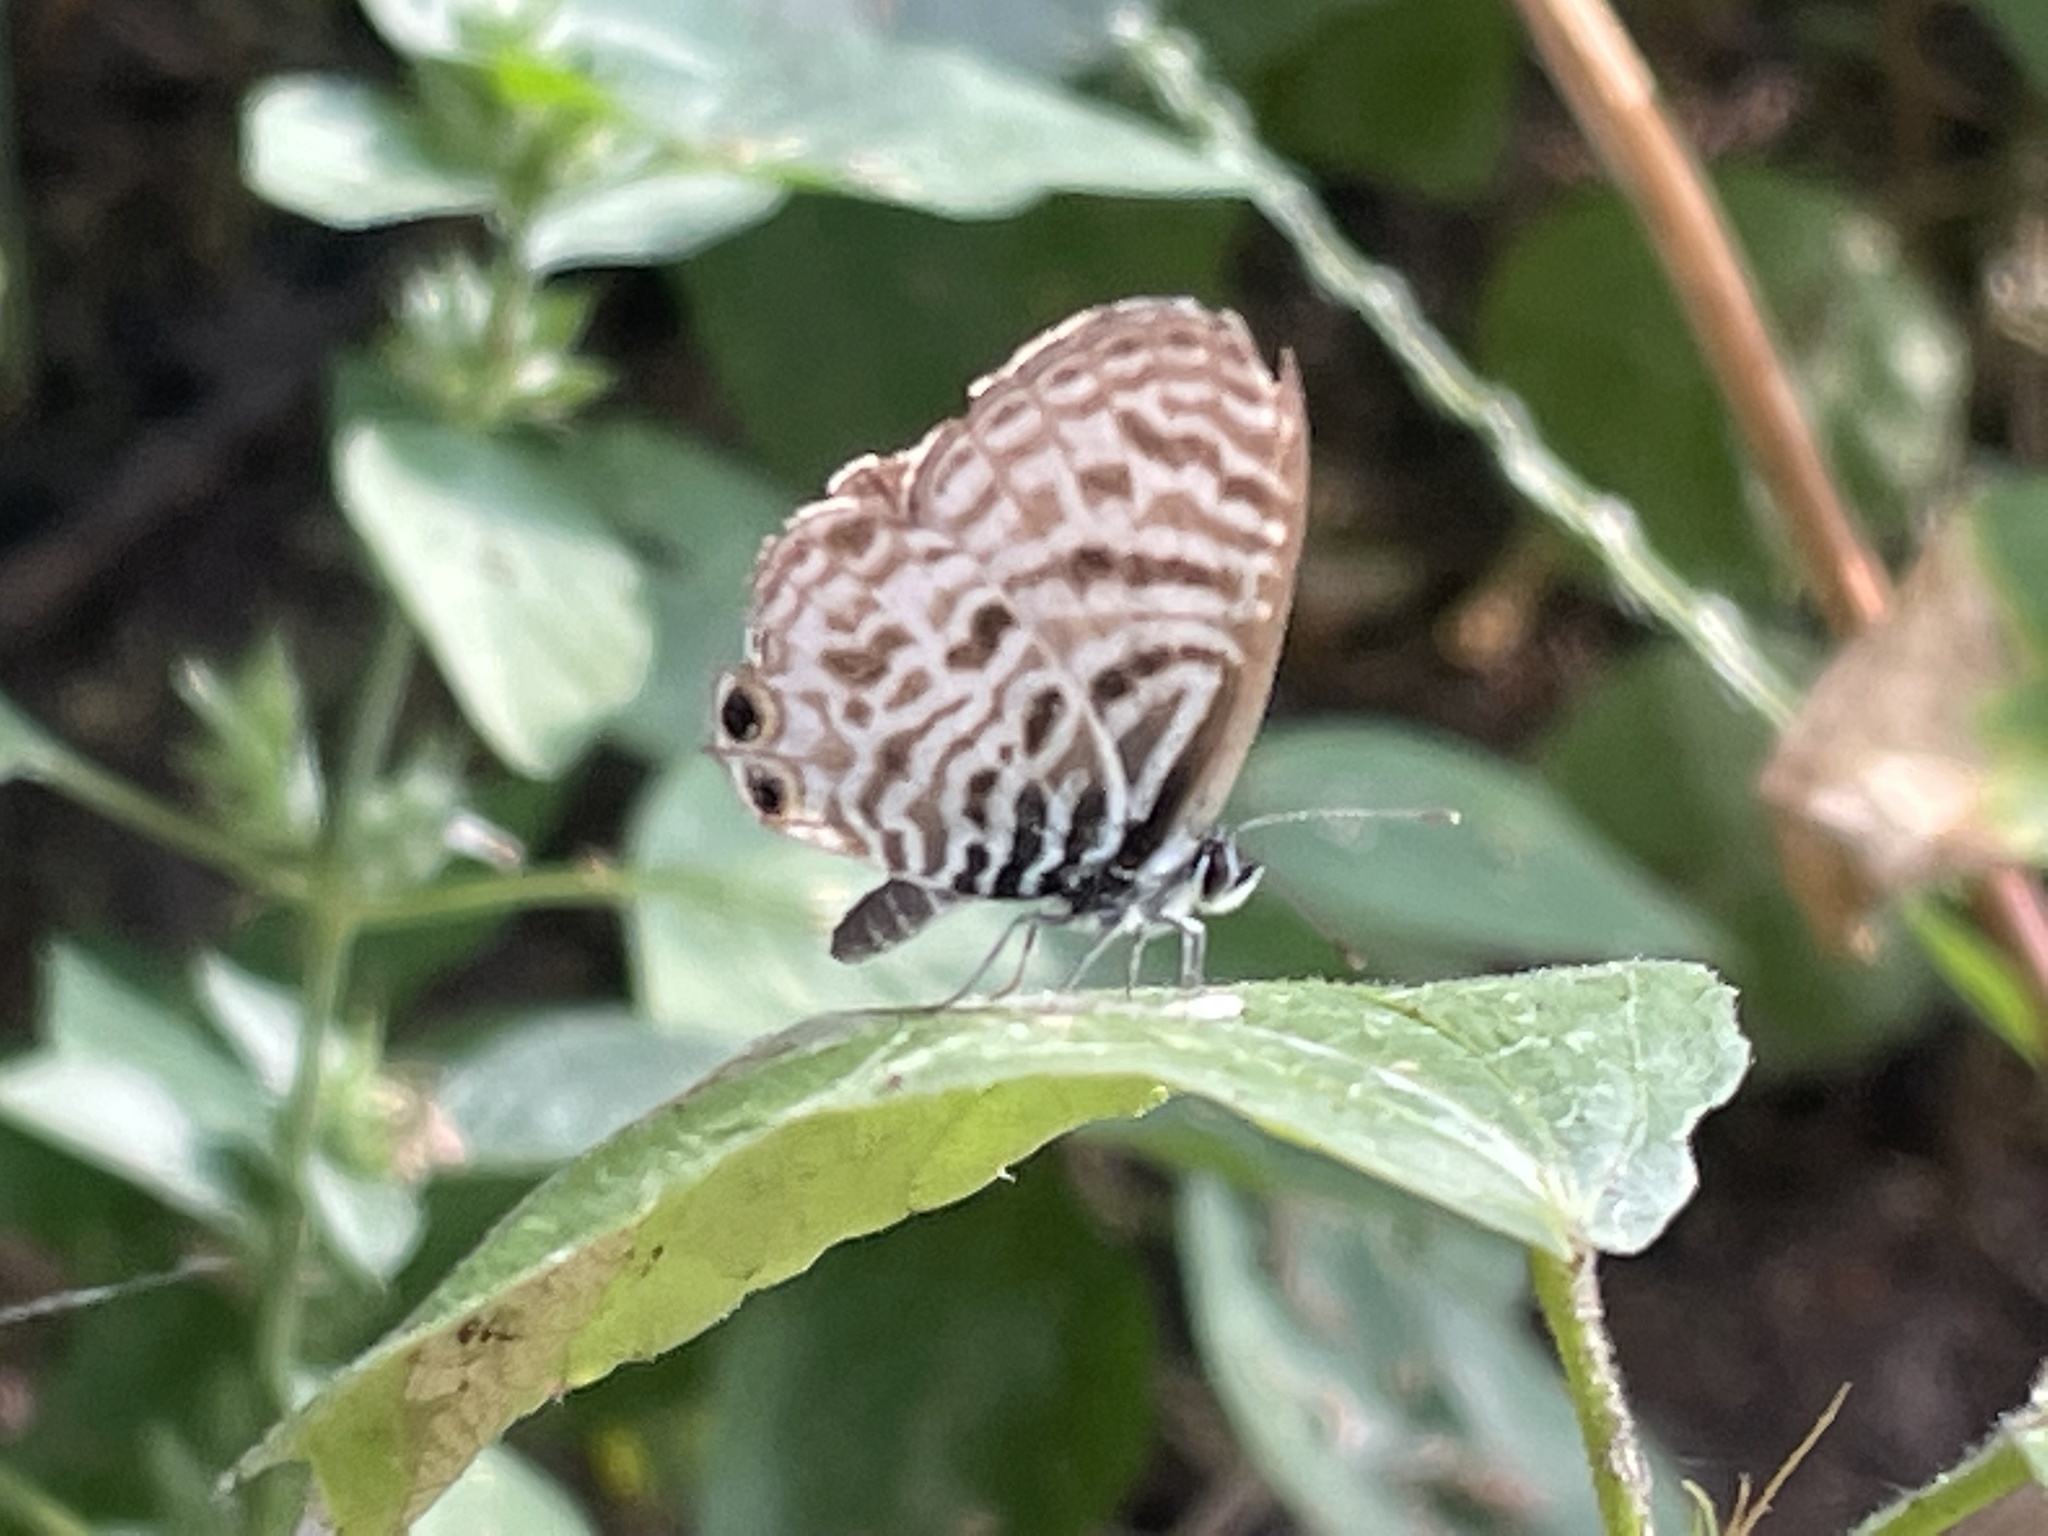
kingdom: Animalia
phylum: Arthropoda
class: Insecta
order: Lepidoptera
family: Lycaenidae
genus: Leptotes
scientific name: Leptotes
